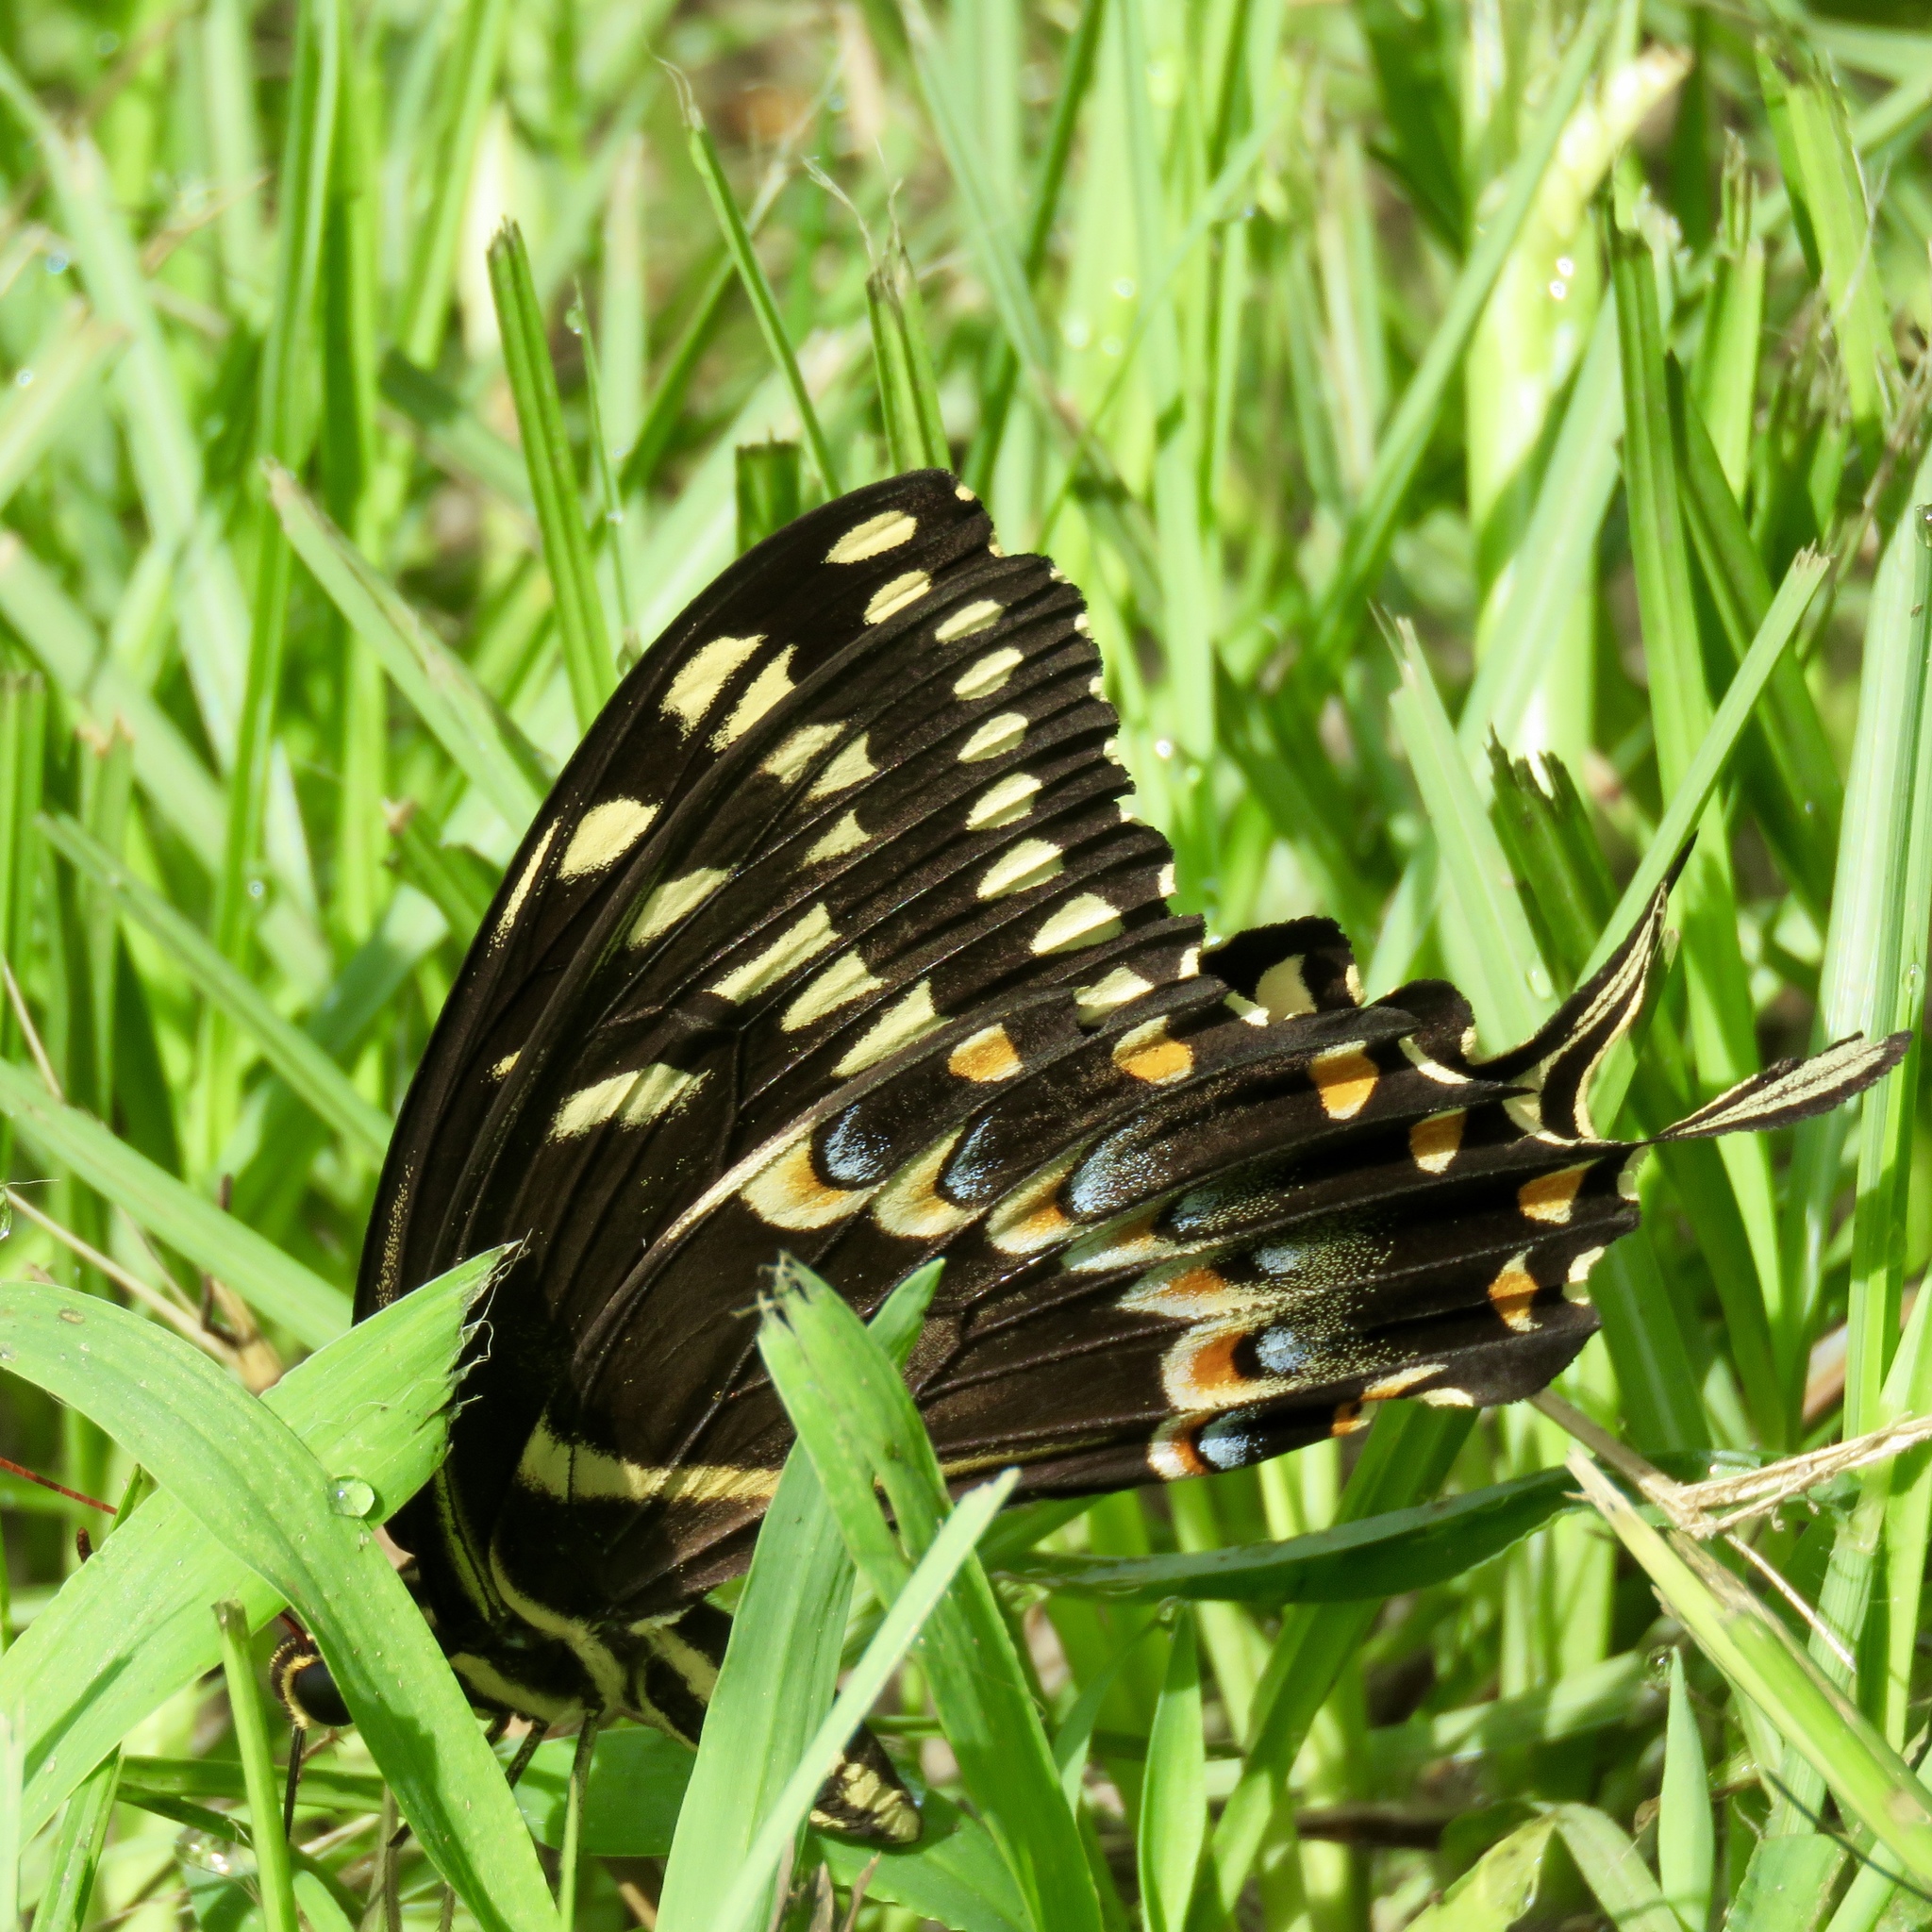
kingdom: Animalia
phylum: Arthropoda
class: Insecta
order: Lepidoptera
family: Papilionidae
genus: Papilio
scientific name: Papilio palamedes
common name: Palamedes swallowtail
